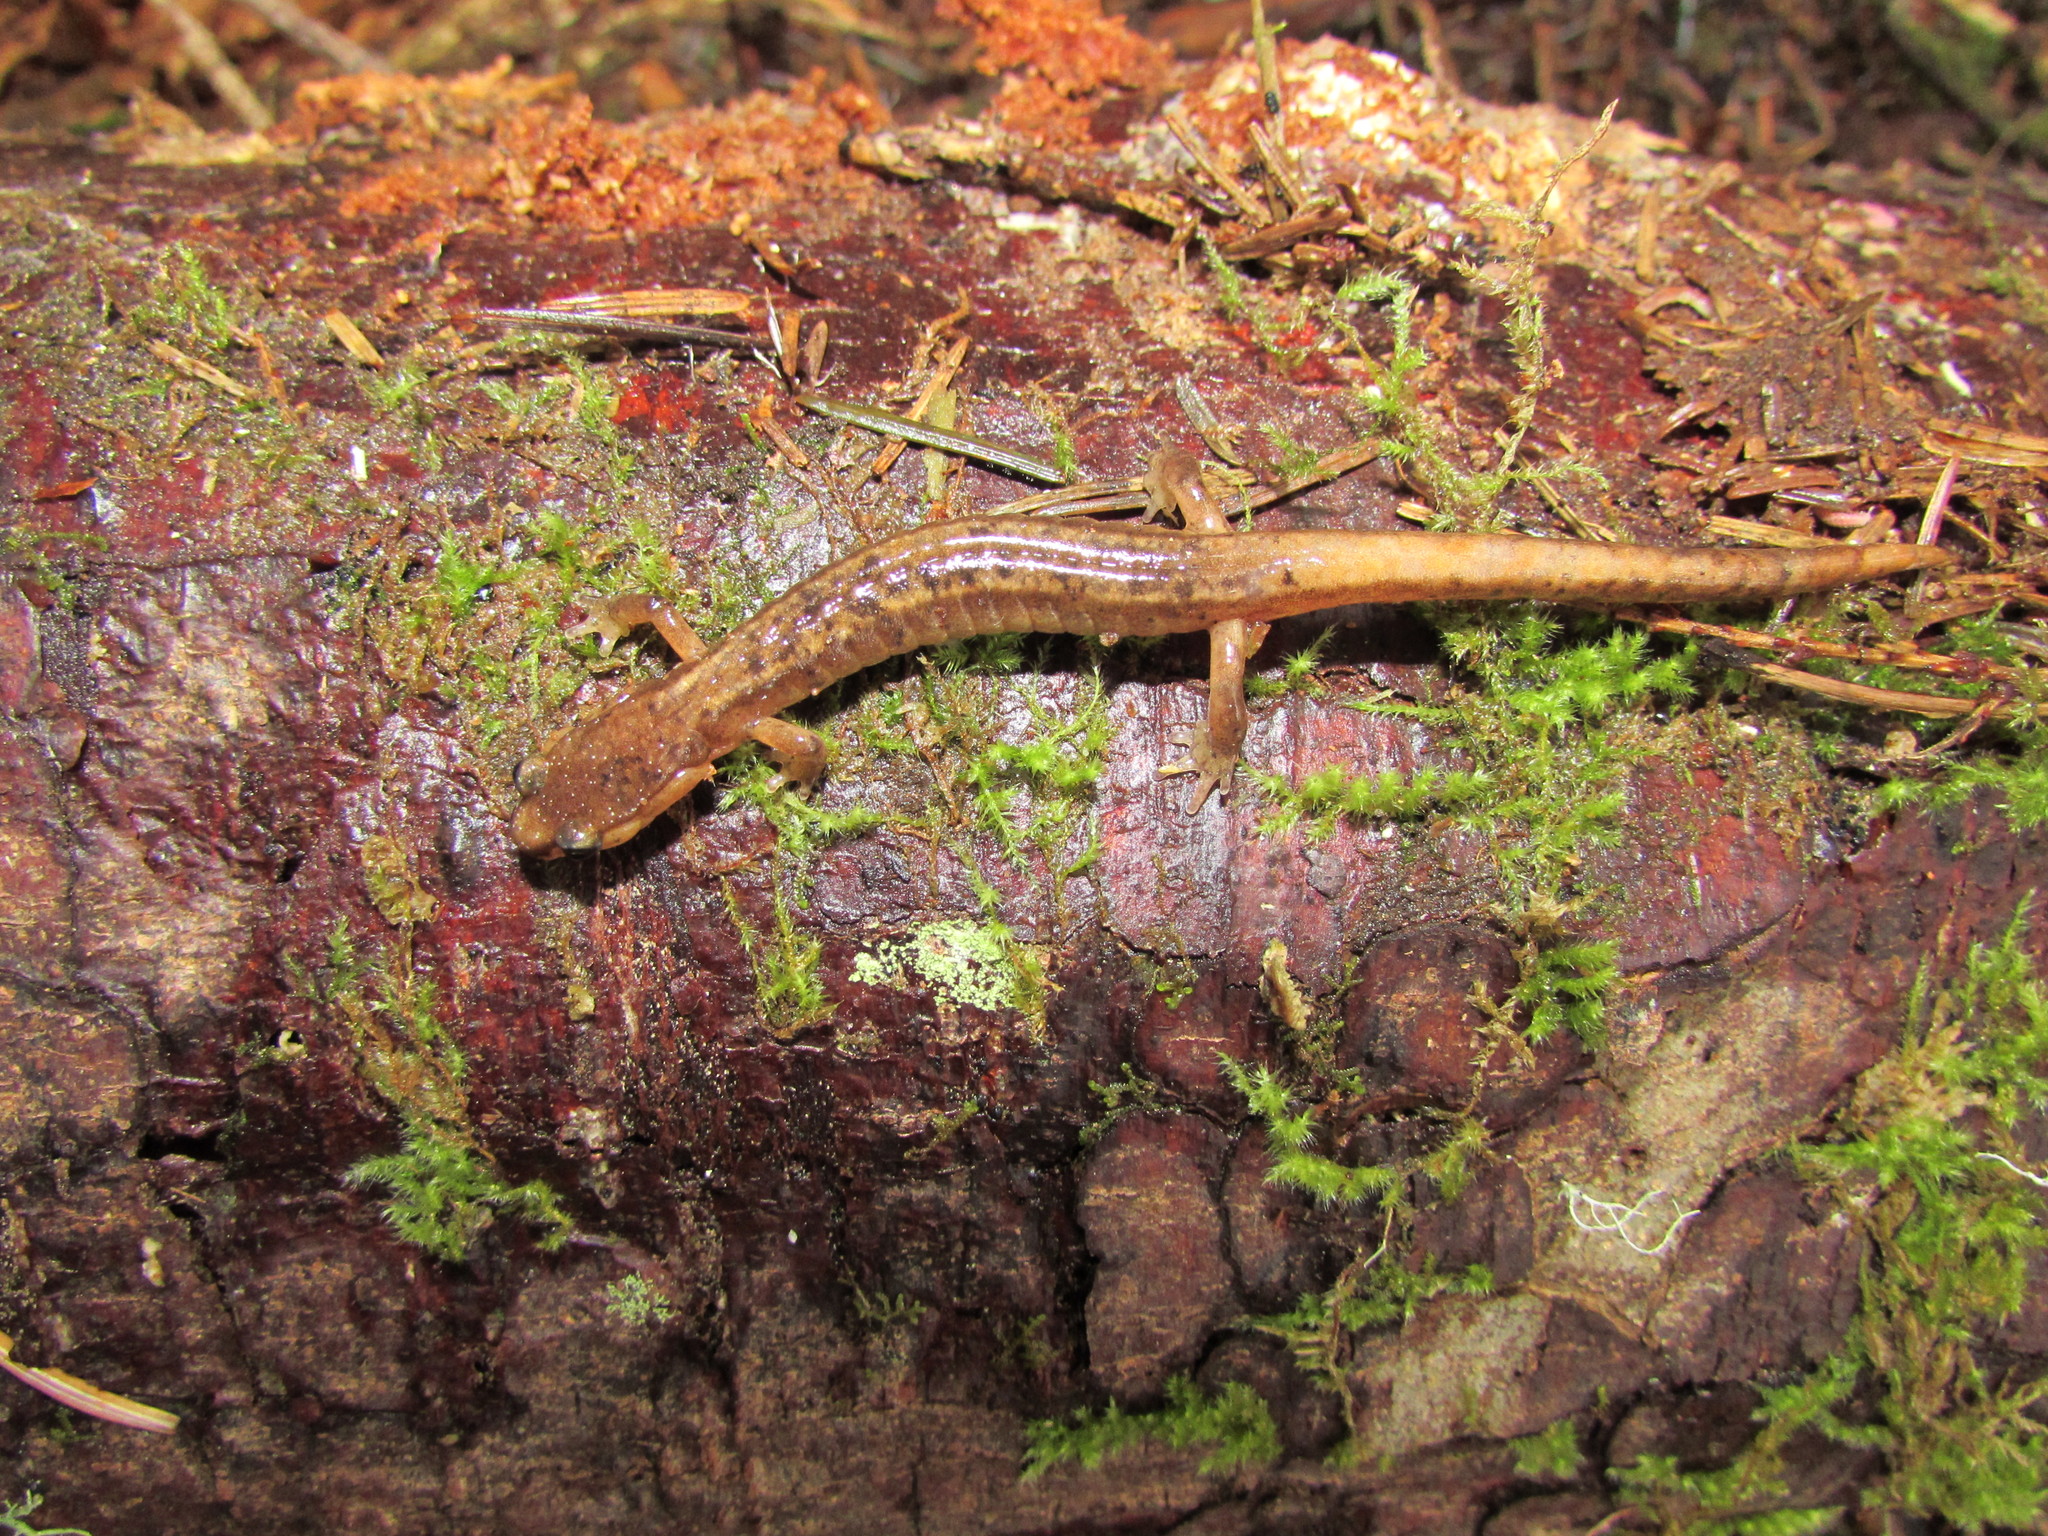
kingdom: Animalia
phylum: Chordata
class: Amphibia
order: Caudata
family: Plethodontidae
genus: Plethodon
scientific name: Plethodon dunni
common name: Dunn's salamander
